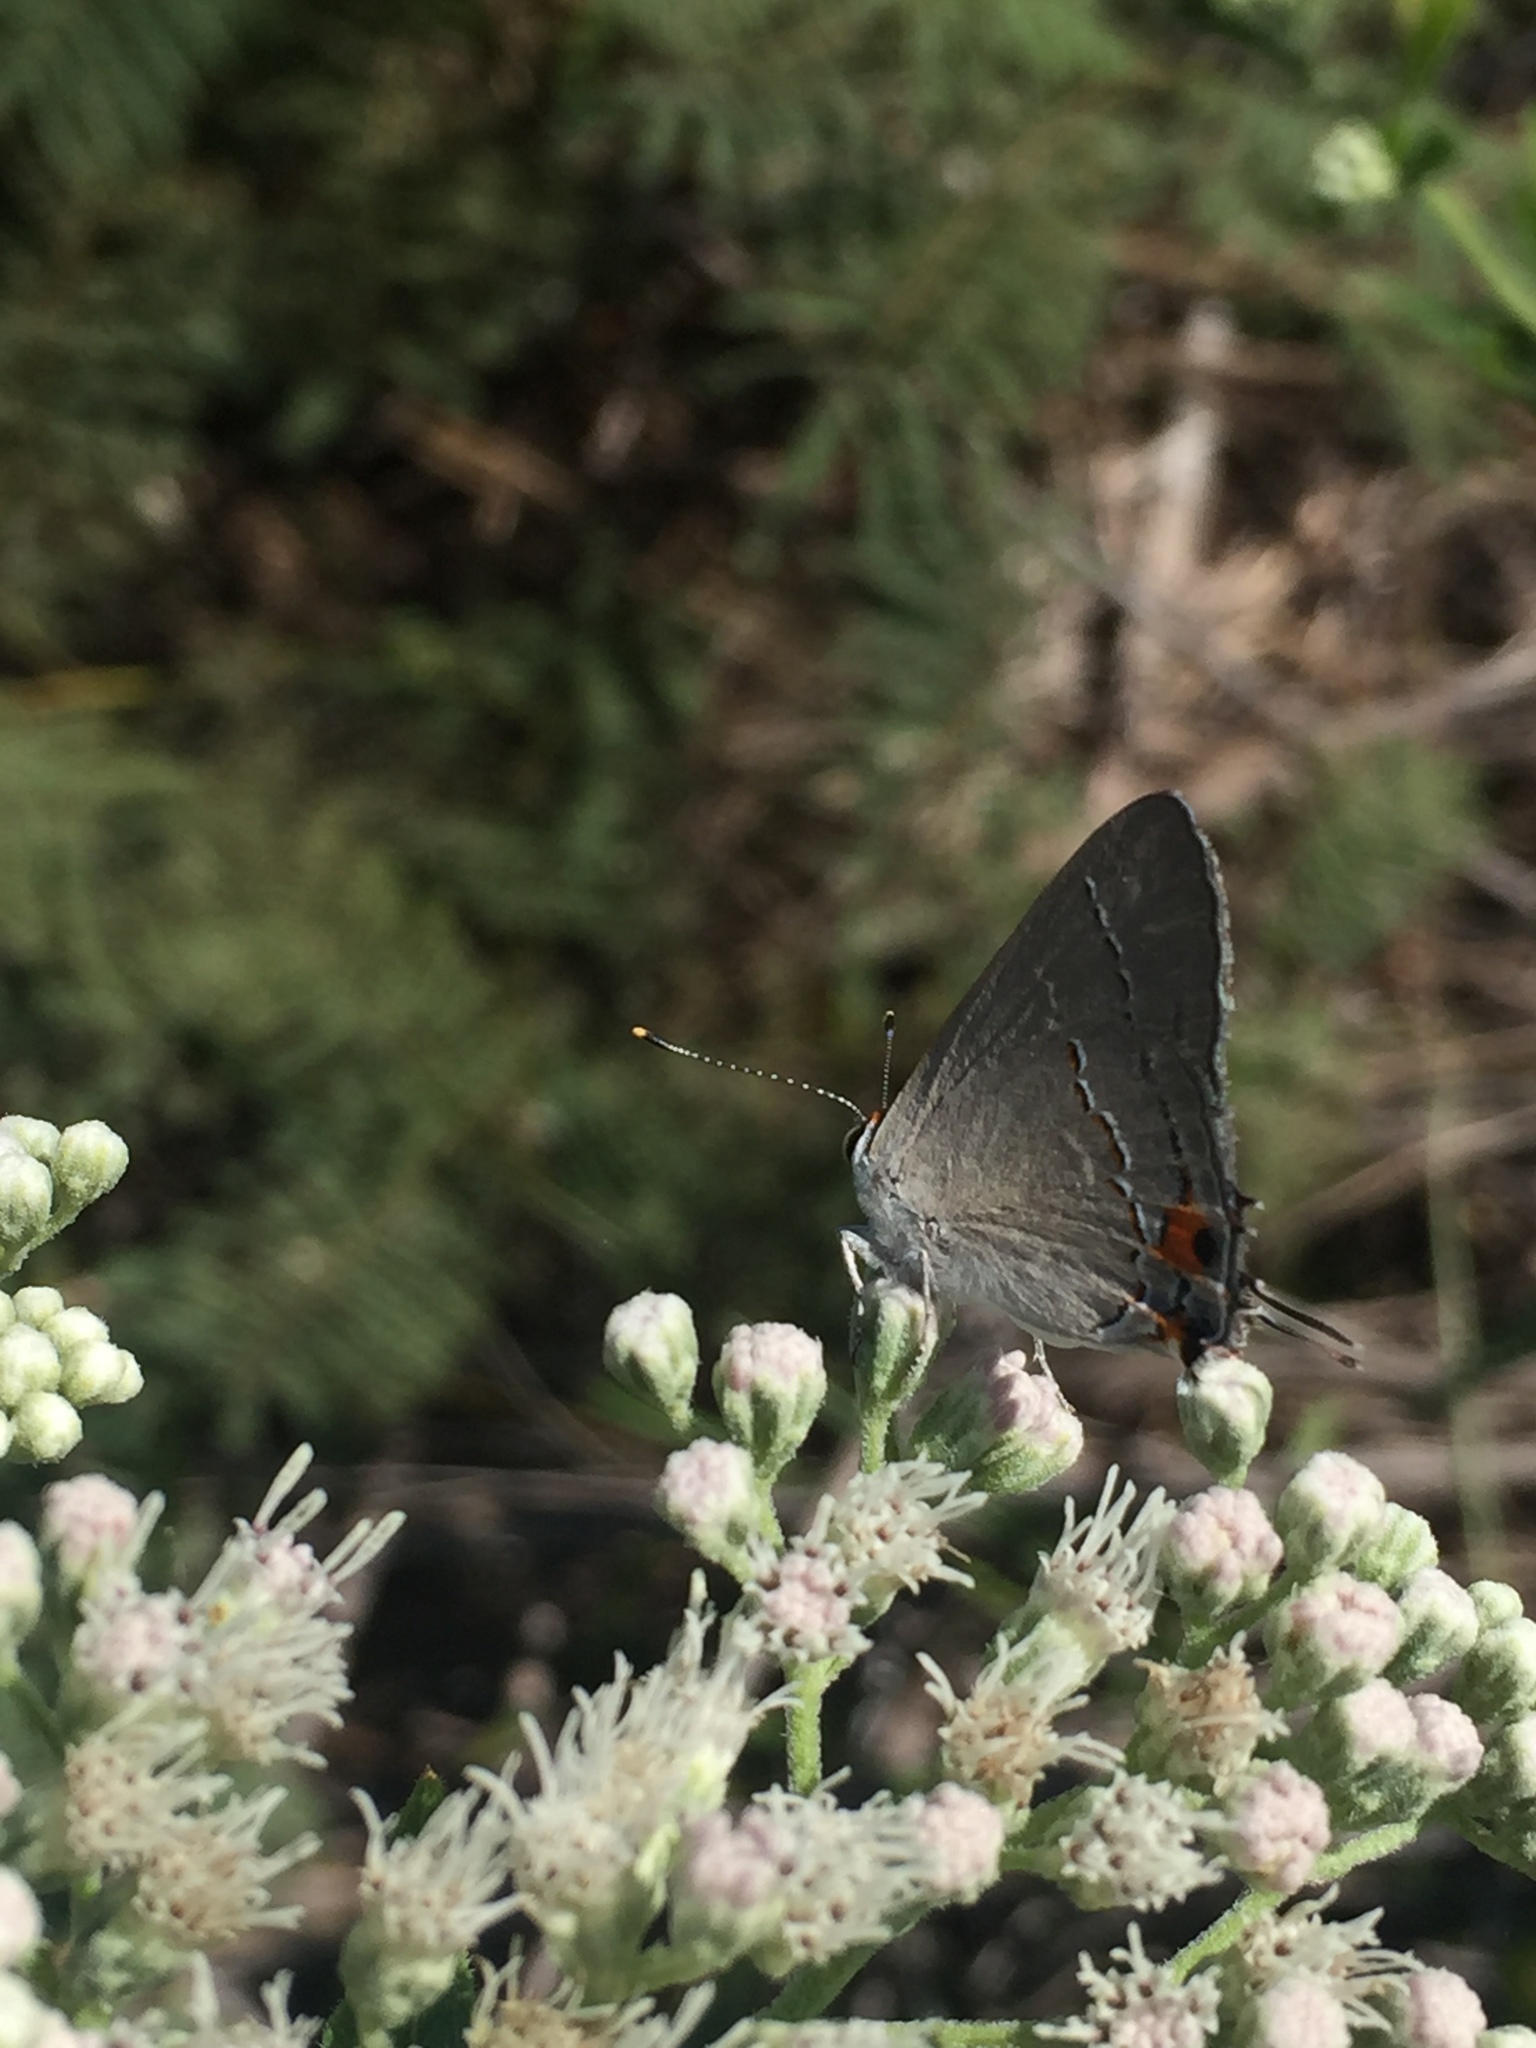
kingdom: Animalia
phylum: Arthropoda
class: Insecta
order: Lepidoptera
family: Lycaenidae
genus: Strymon
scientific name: Strymon melinus
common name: Gray hairstreak
